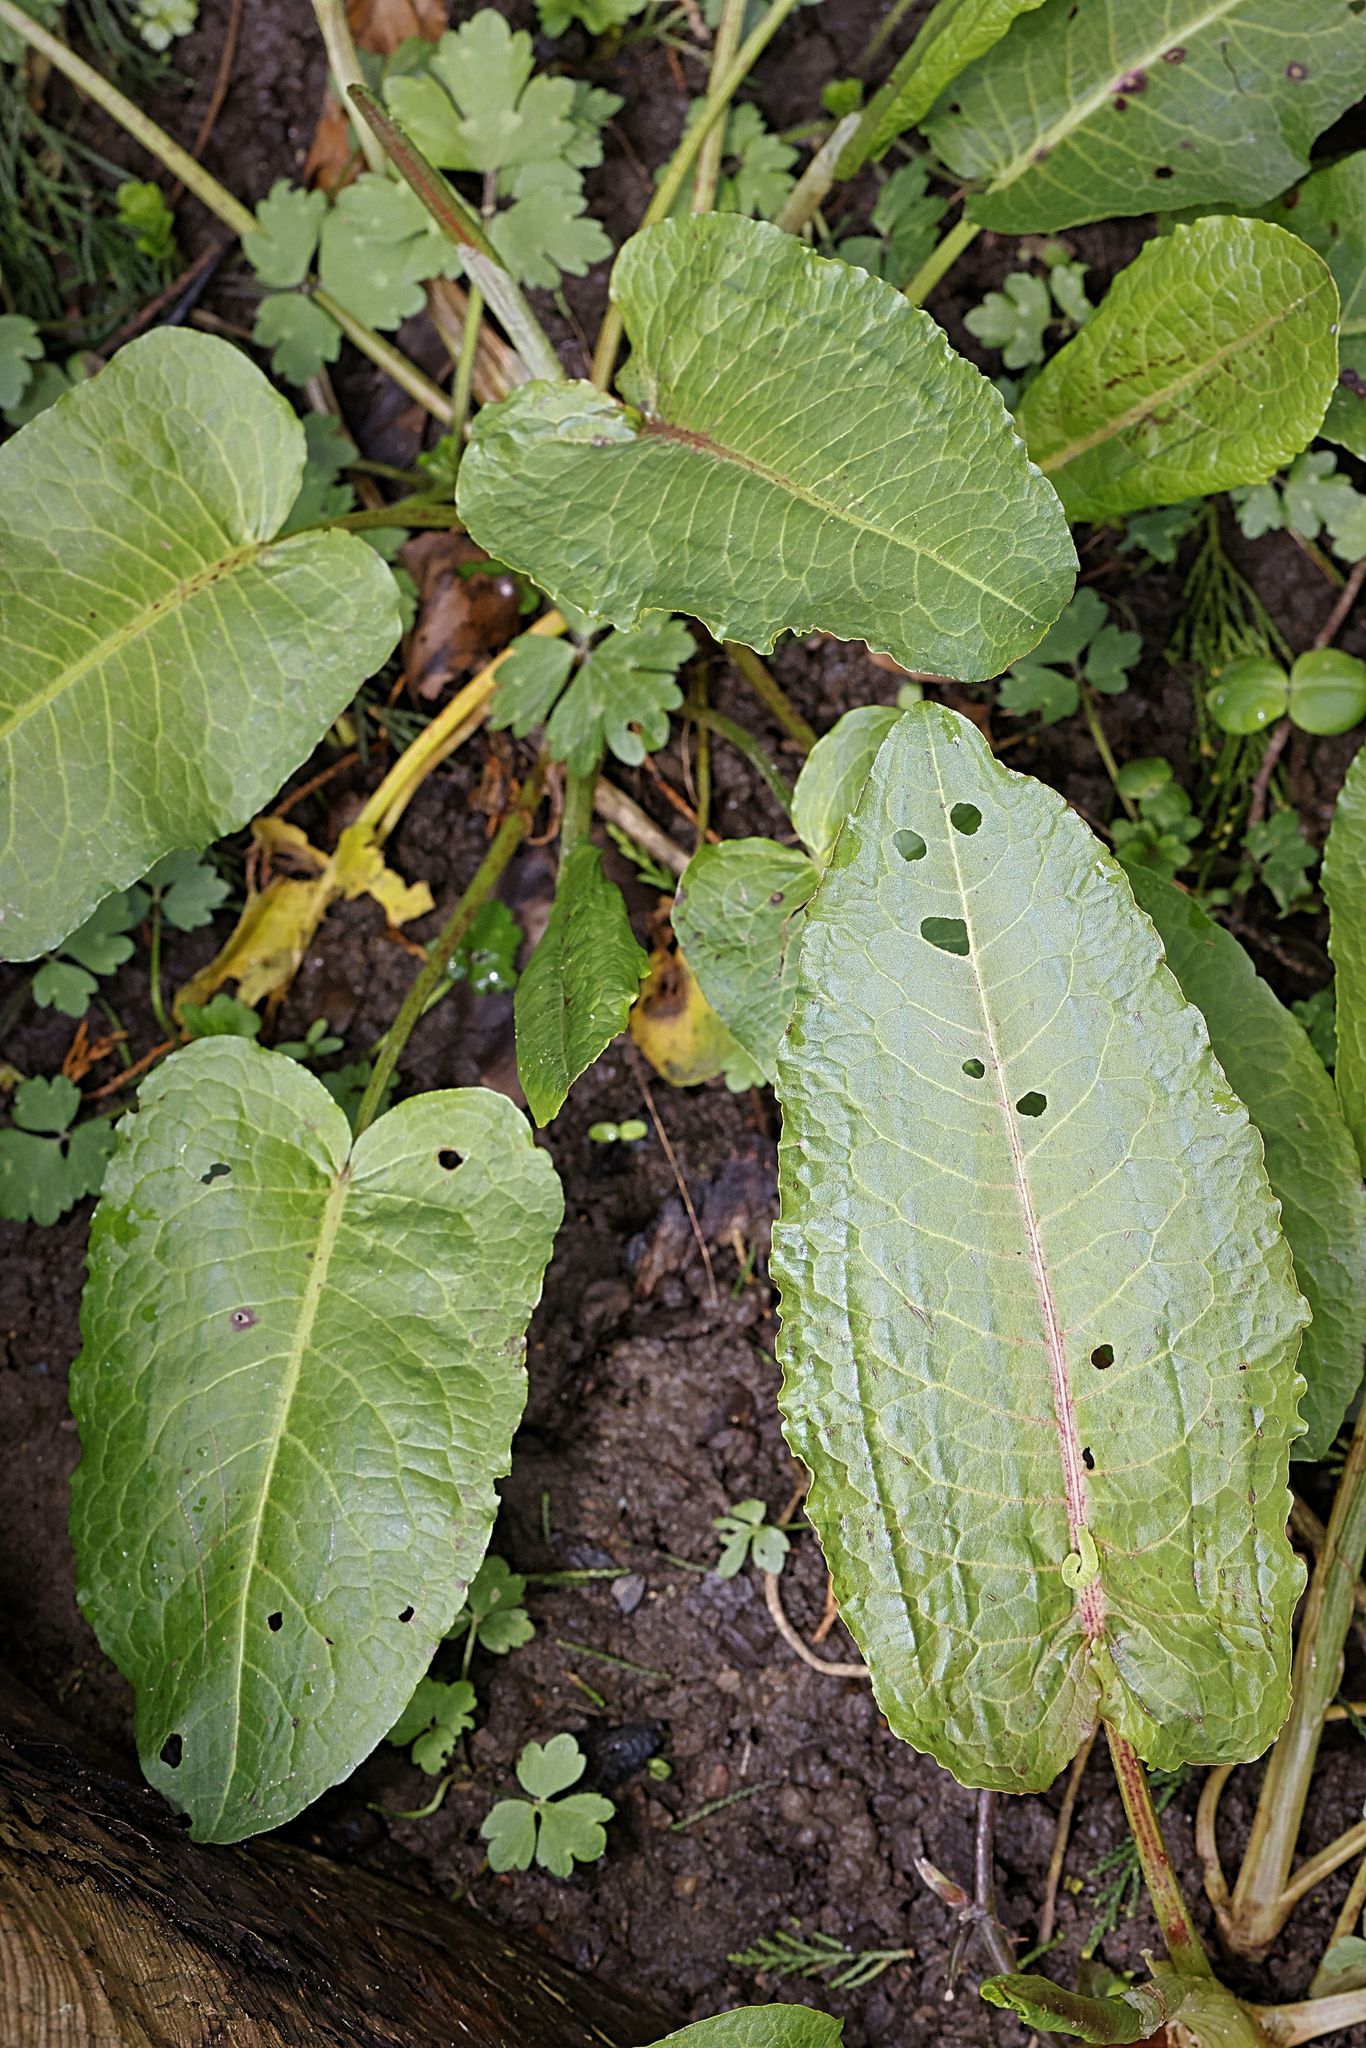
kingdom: Plantae
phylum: Tracheophyta
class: Magnoliopsida
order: Caryophyllales
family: Polygonaceae
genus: Rumex
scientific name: Rumex obtusifolius
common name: Bitter dock
